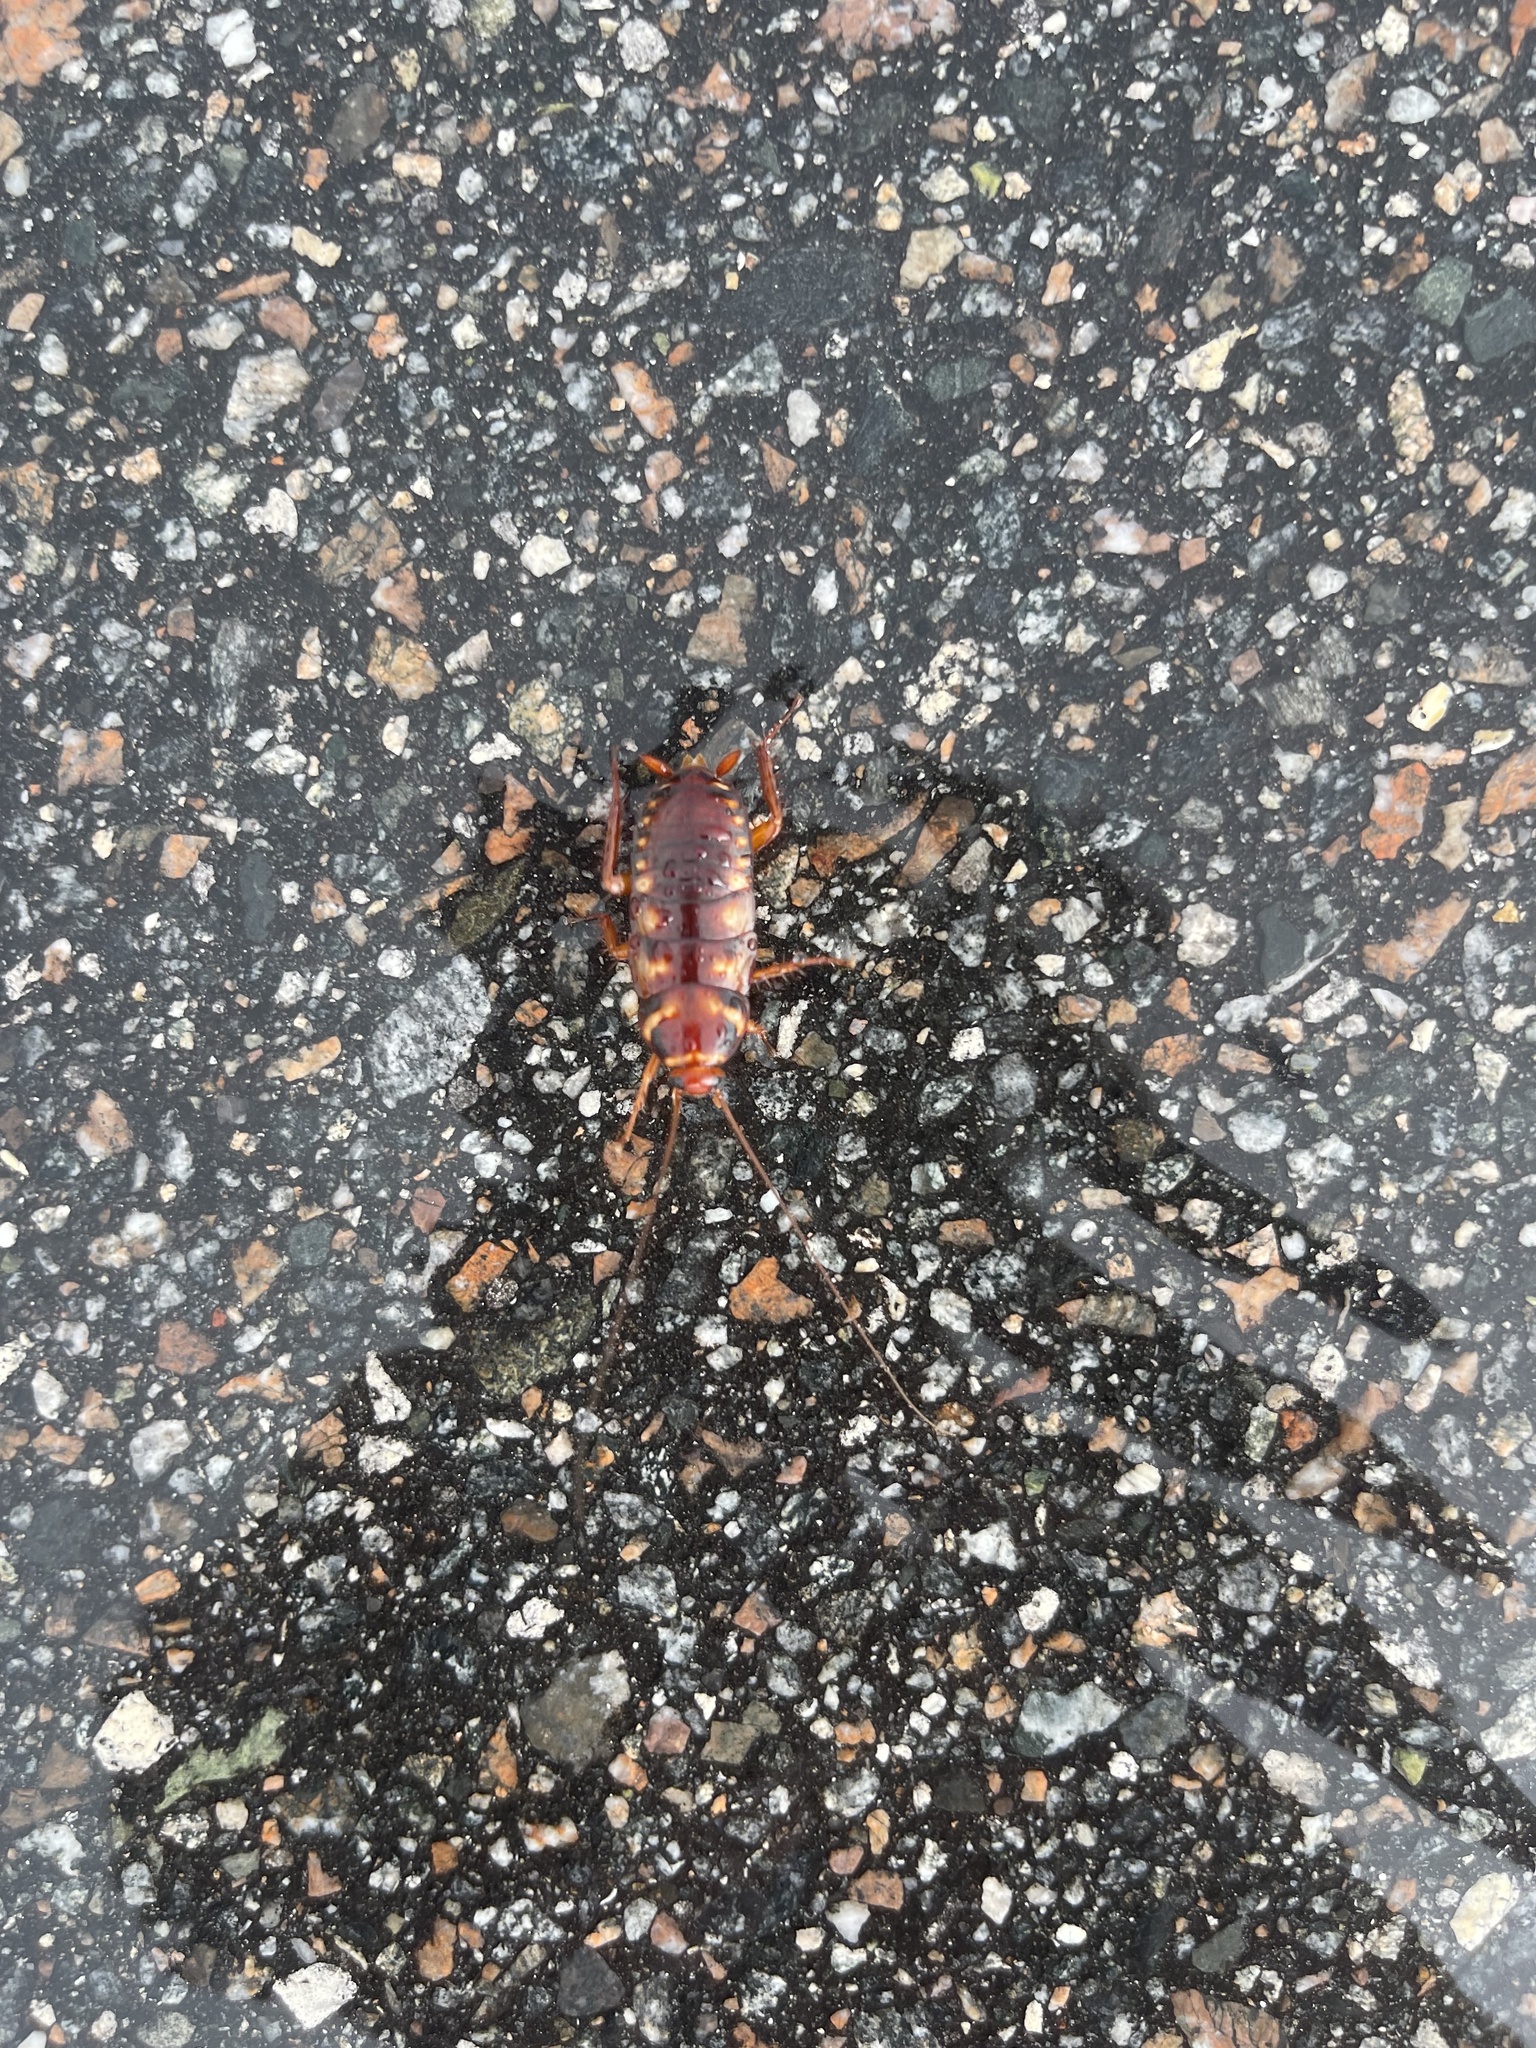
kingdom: Animalia
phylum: Arthropoda
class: Insecta
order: Blattodea
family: Blattidae
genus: Periplaneta
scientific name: Periplaneta australasiae
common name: Australian cockroach
